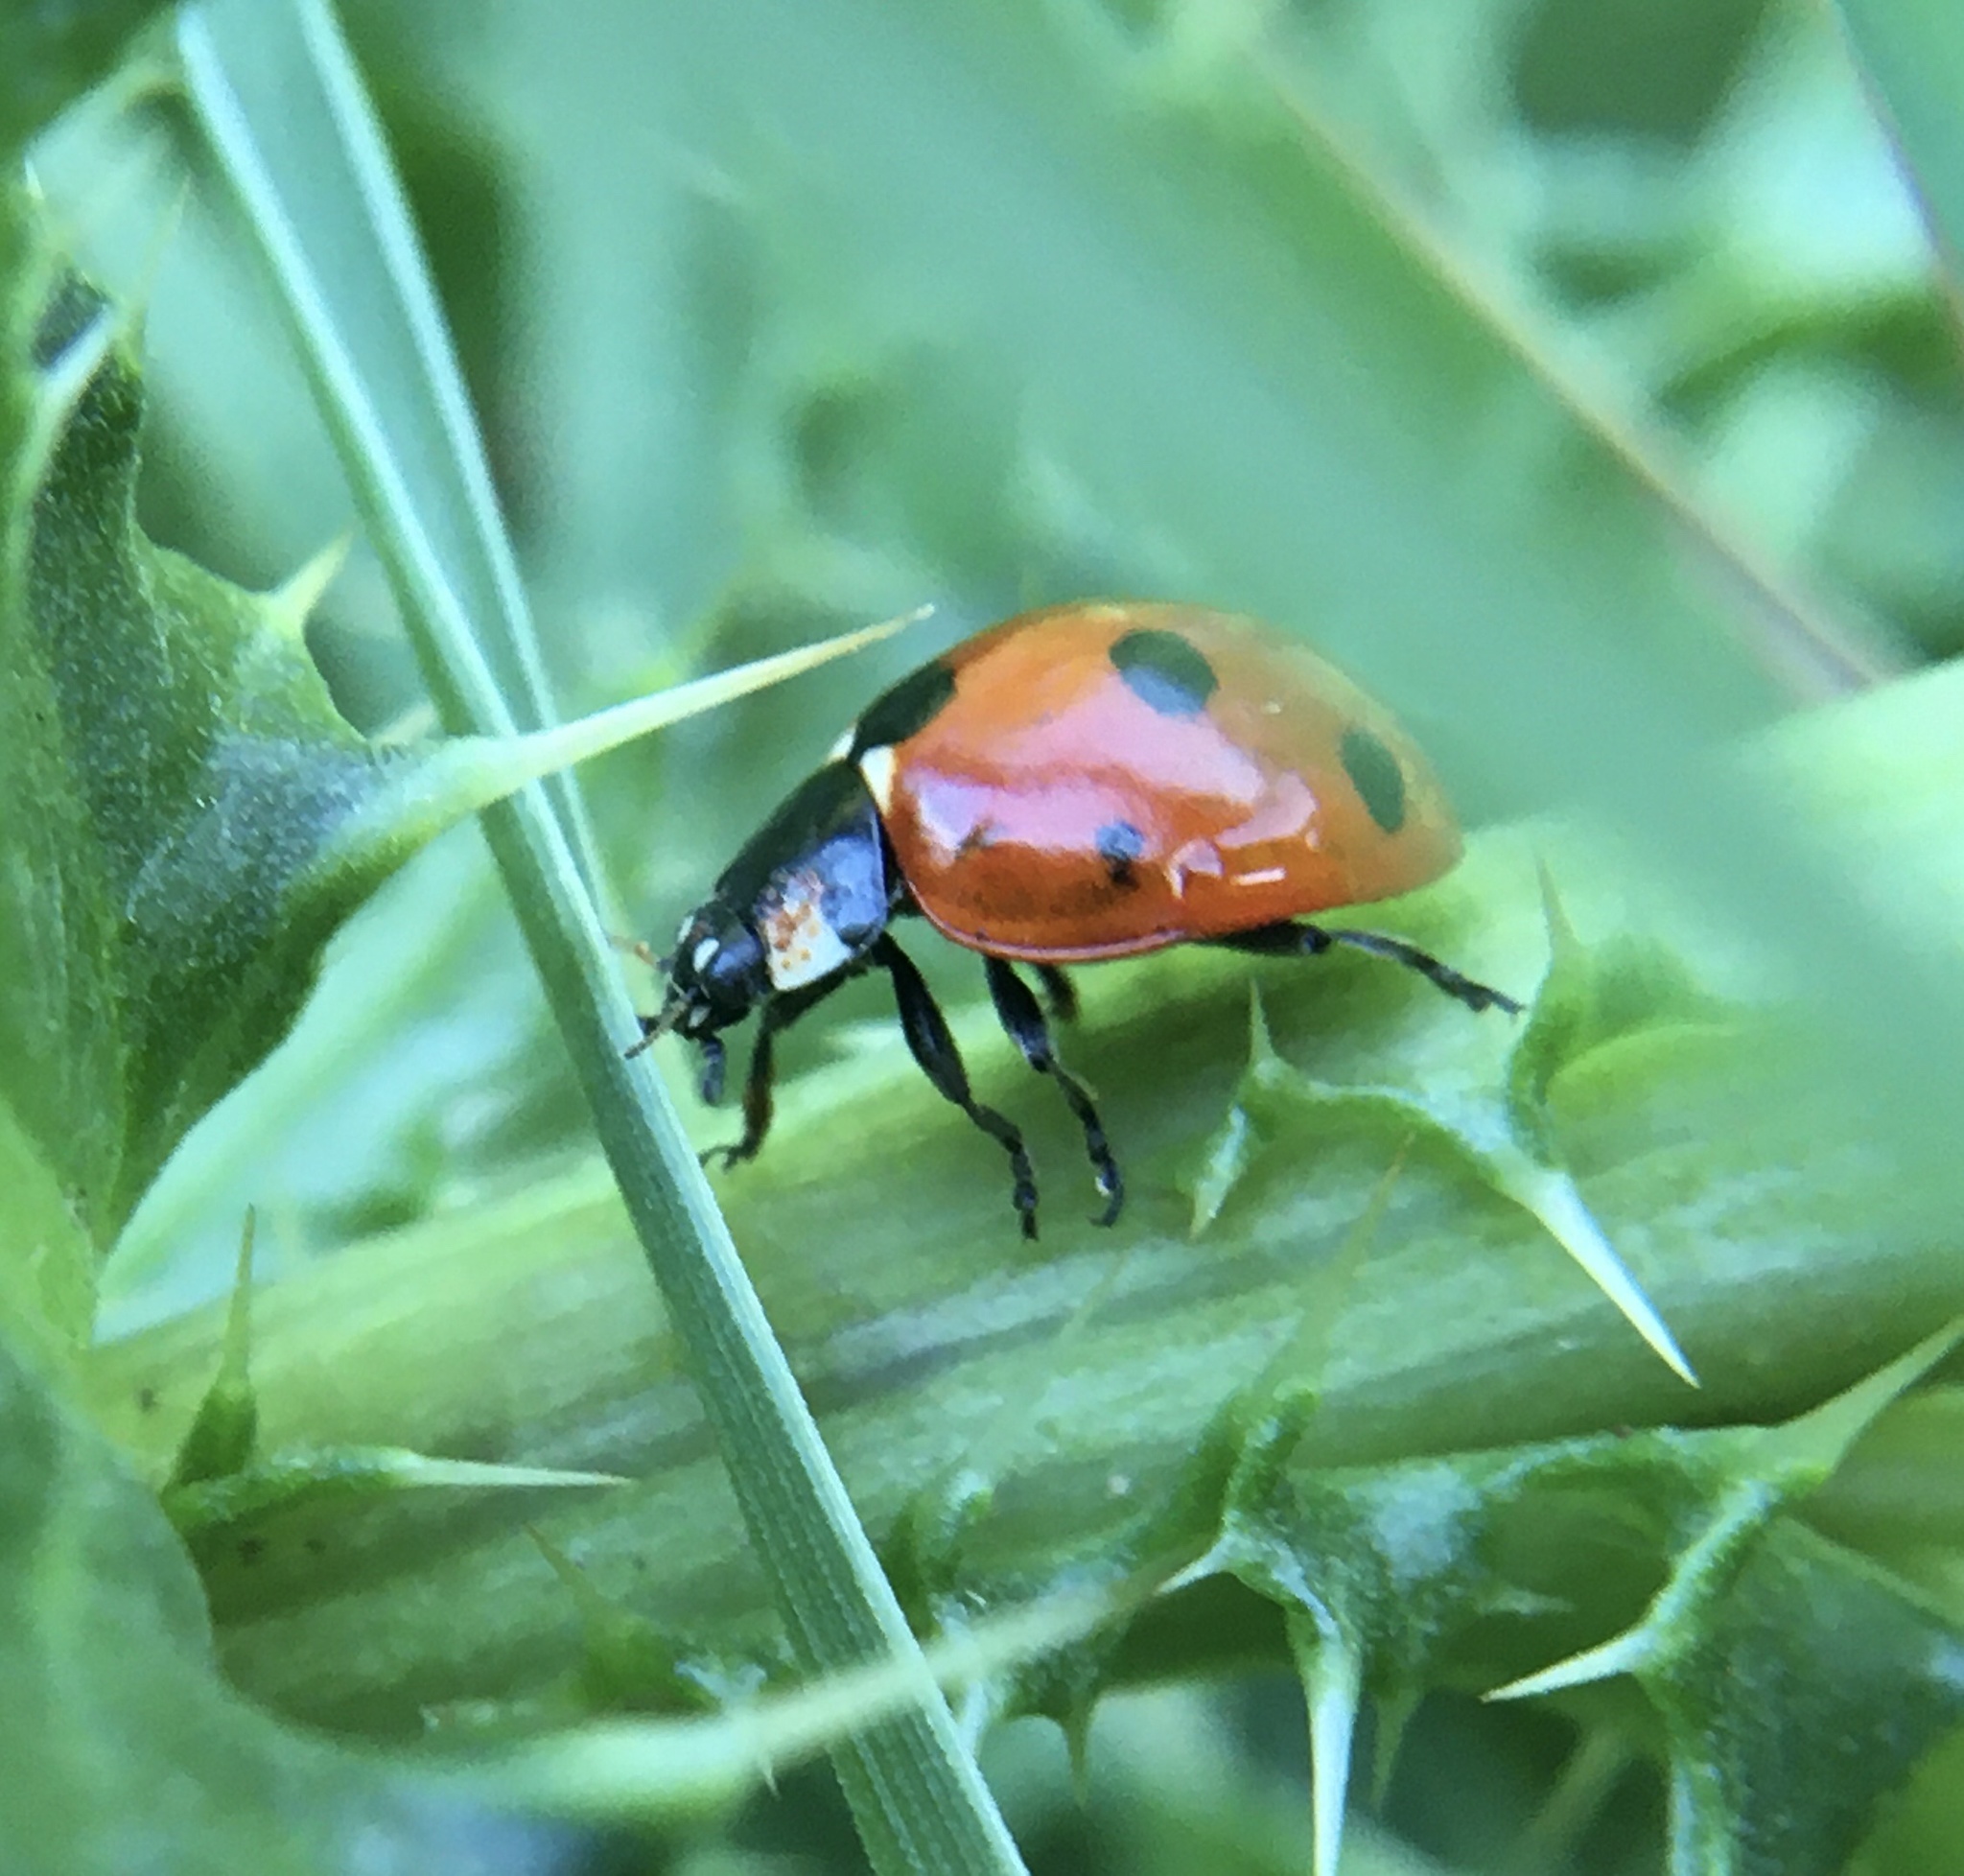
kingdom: Animalia
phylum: Arthropoda
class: Insecta
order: Coleoptera
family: Coccinellidae
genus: Coccinella
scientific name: Coccinella septempunctata
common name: Sevenspotted lady beetle
